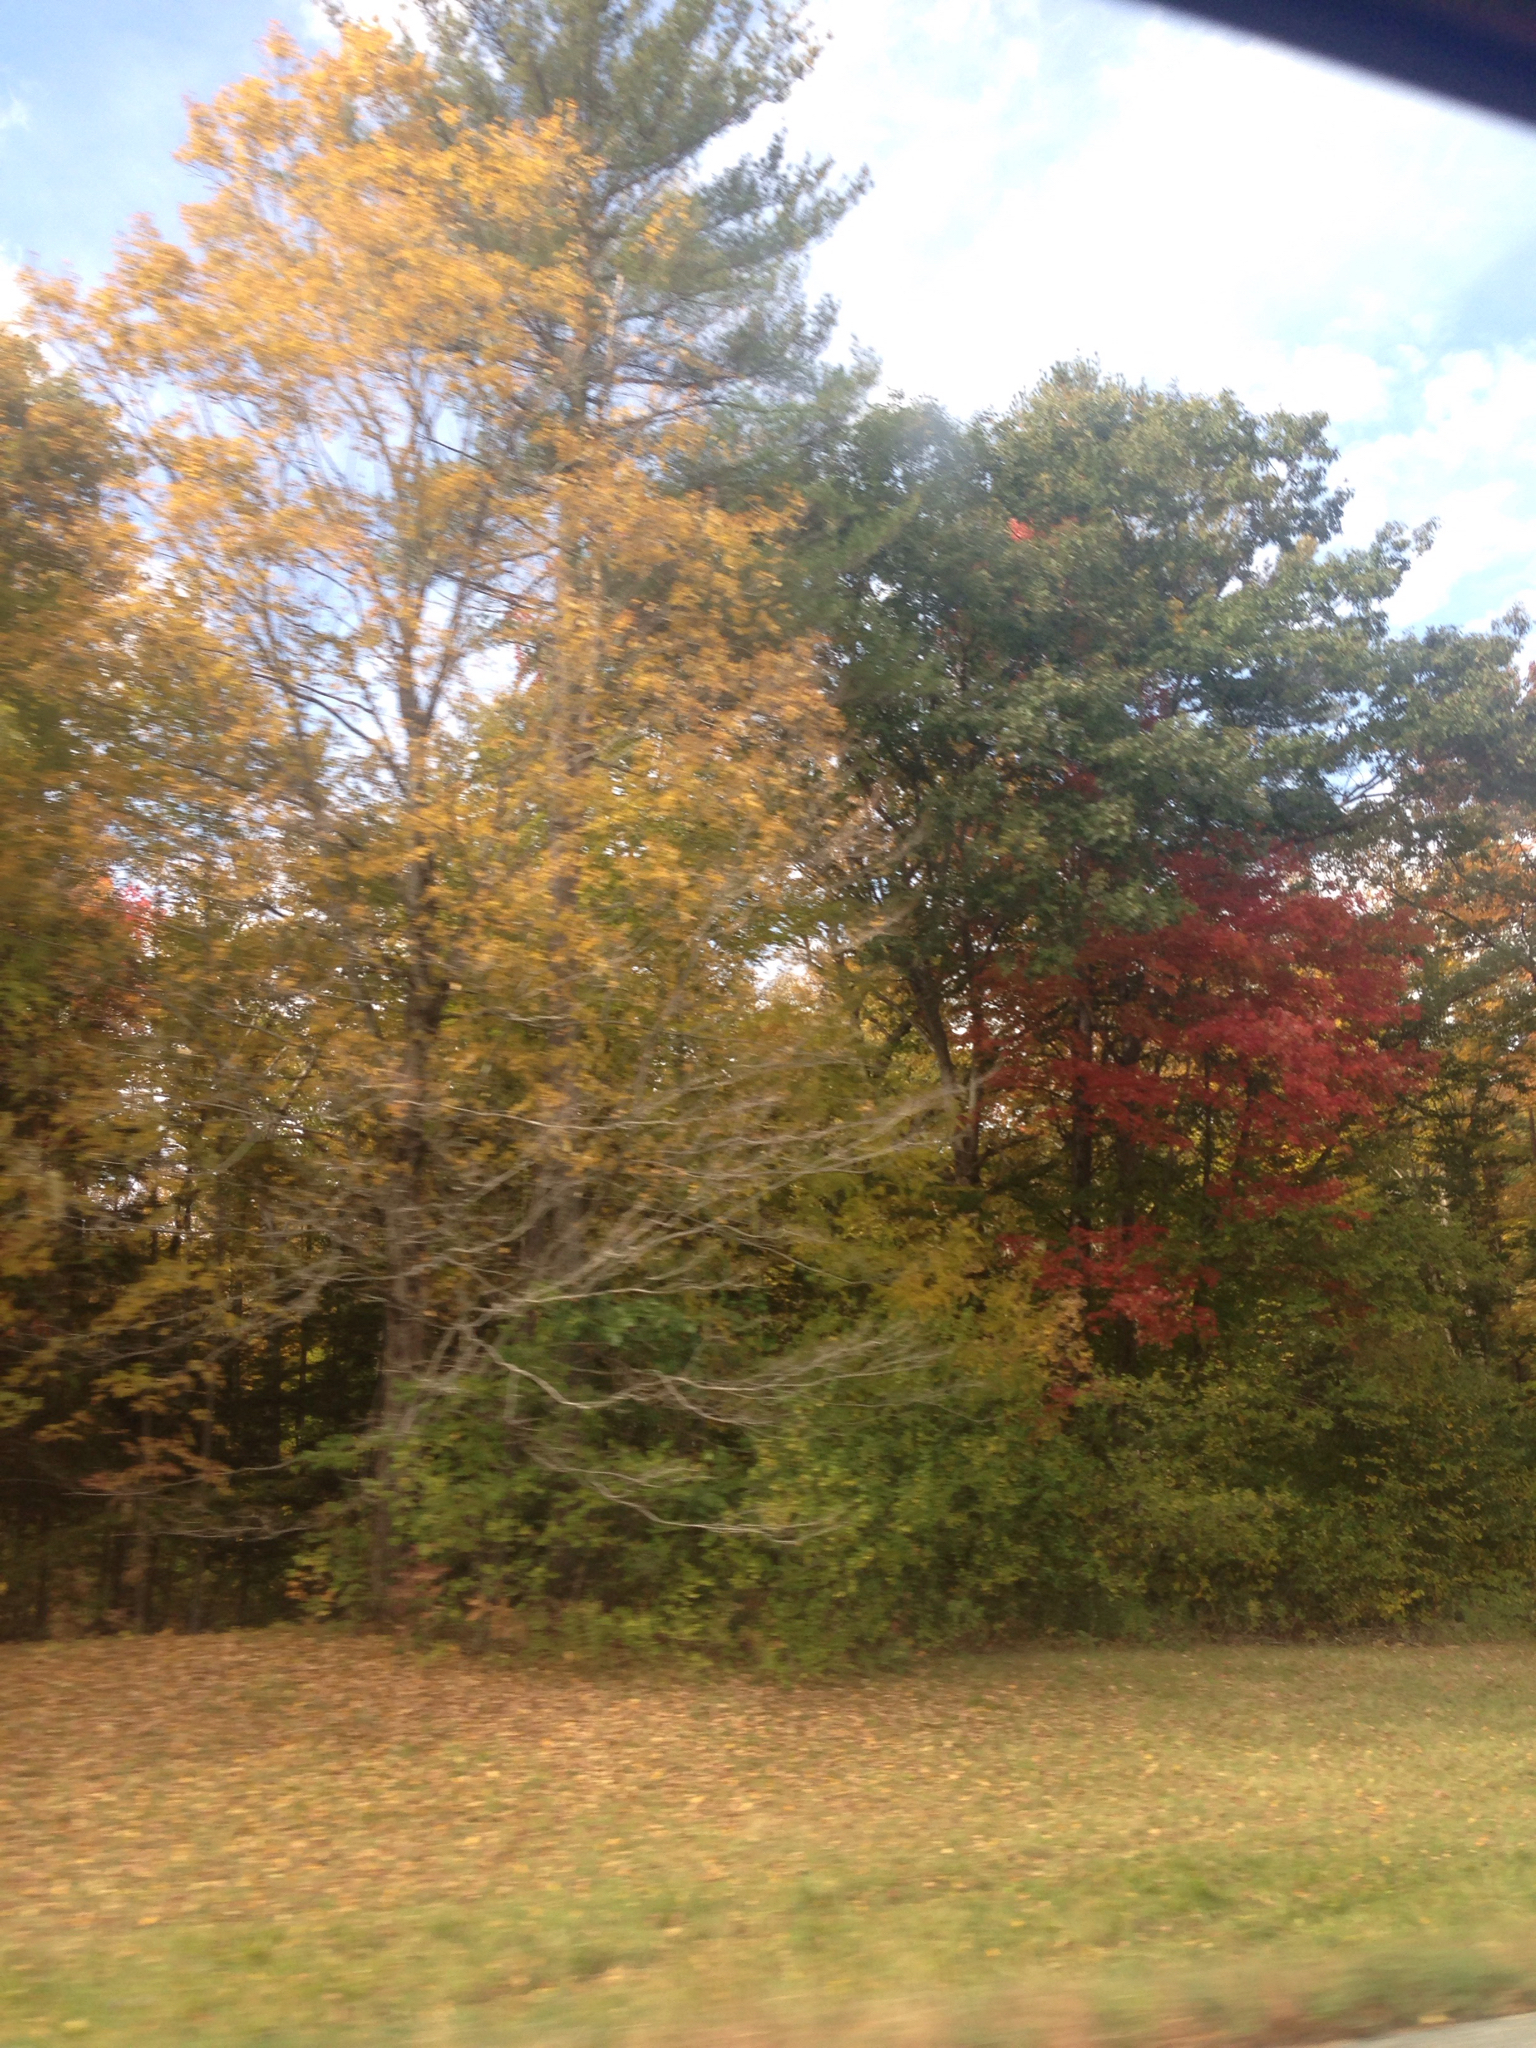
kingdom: Plantae
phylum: Tracheophyta
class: Pinopsida
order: Pinales
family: Pinaceae
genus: Pinus
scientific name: Pinus strobus
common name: Weymouth pine
